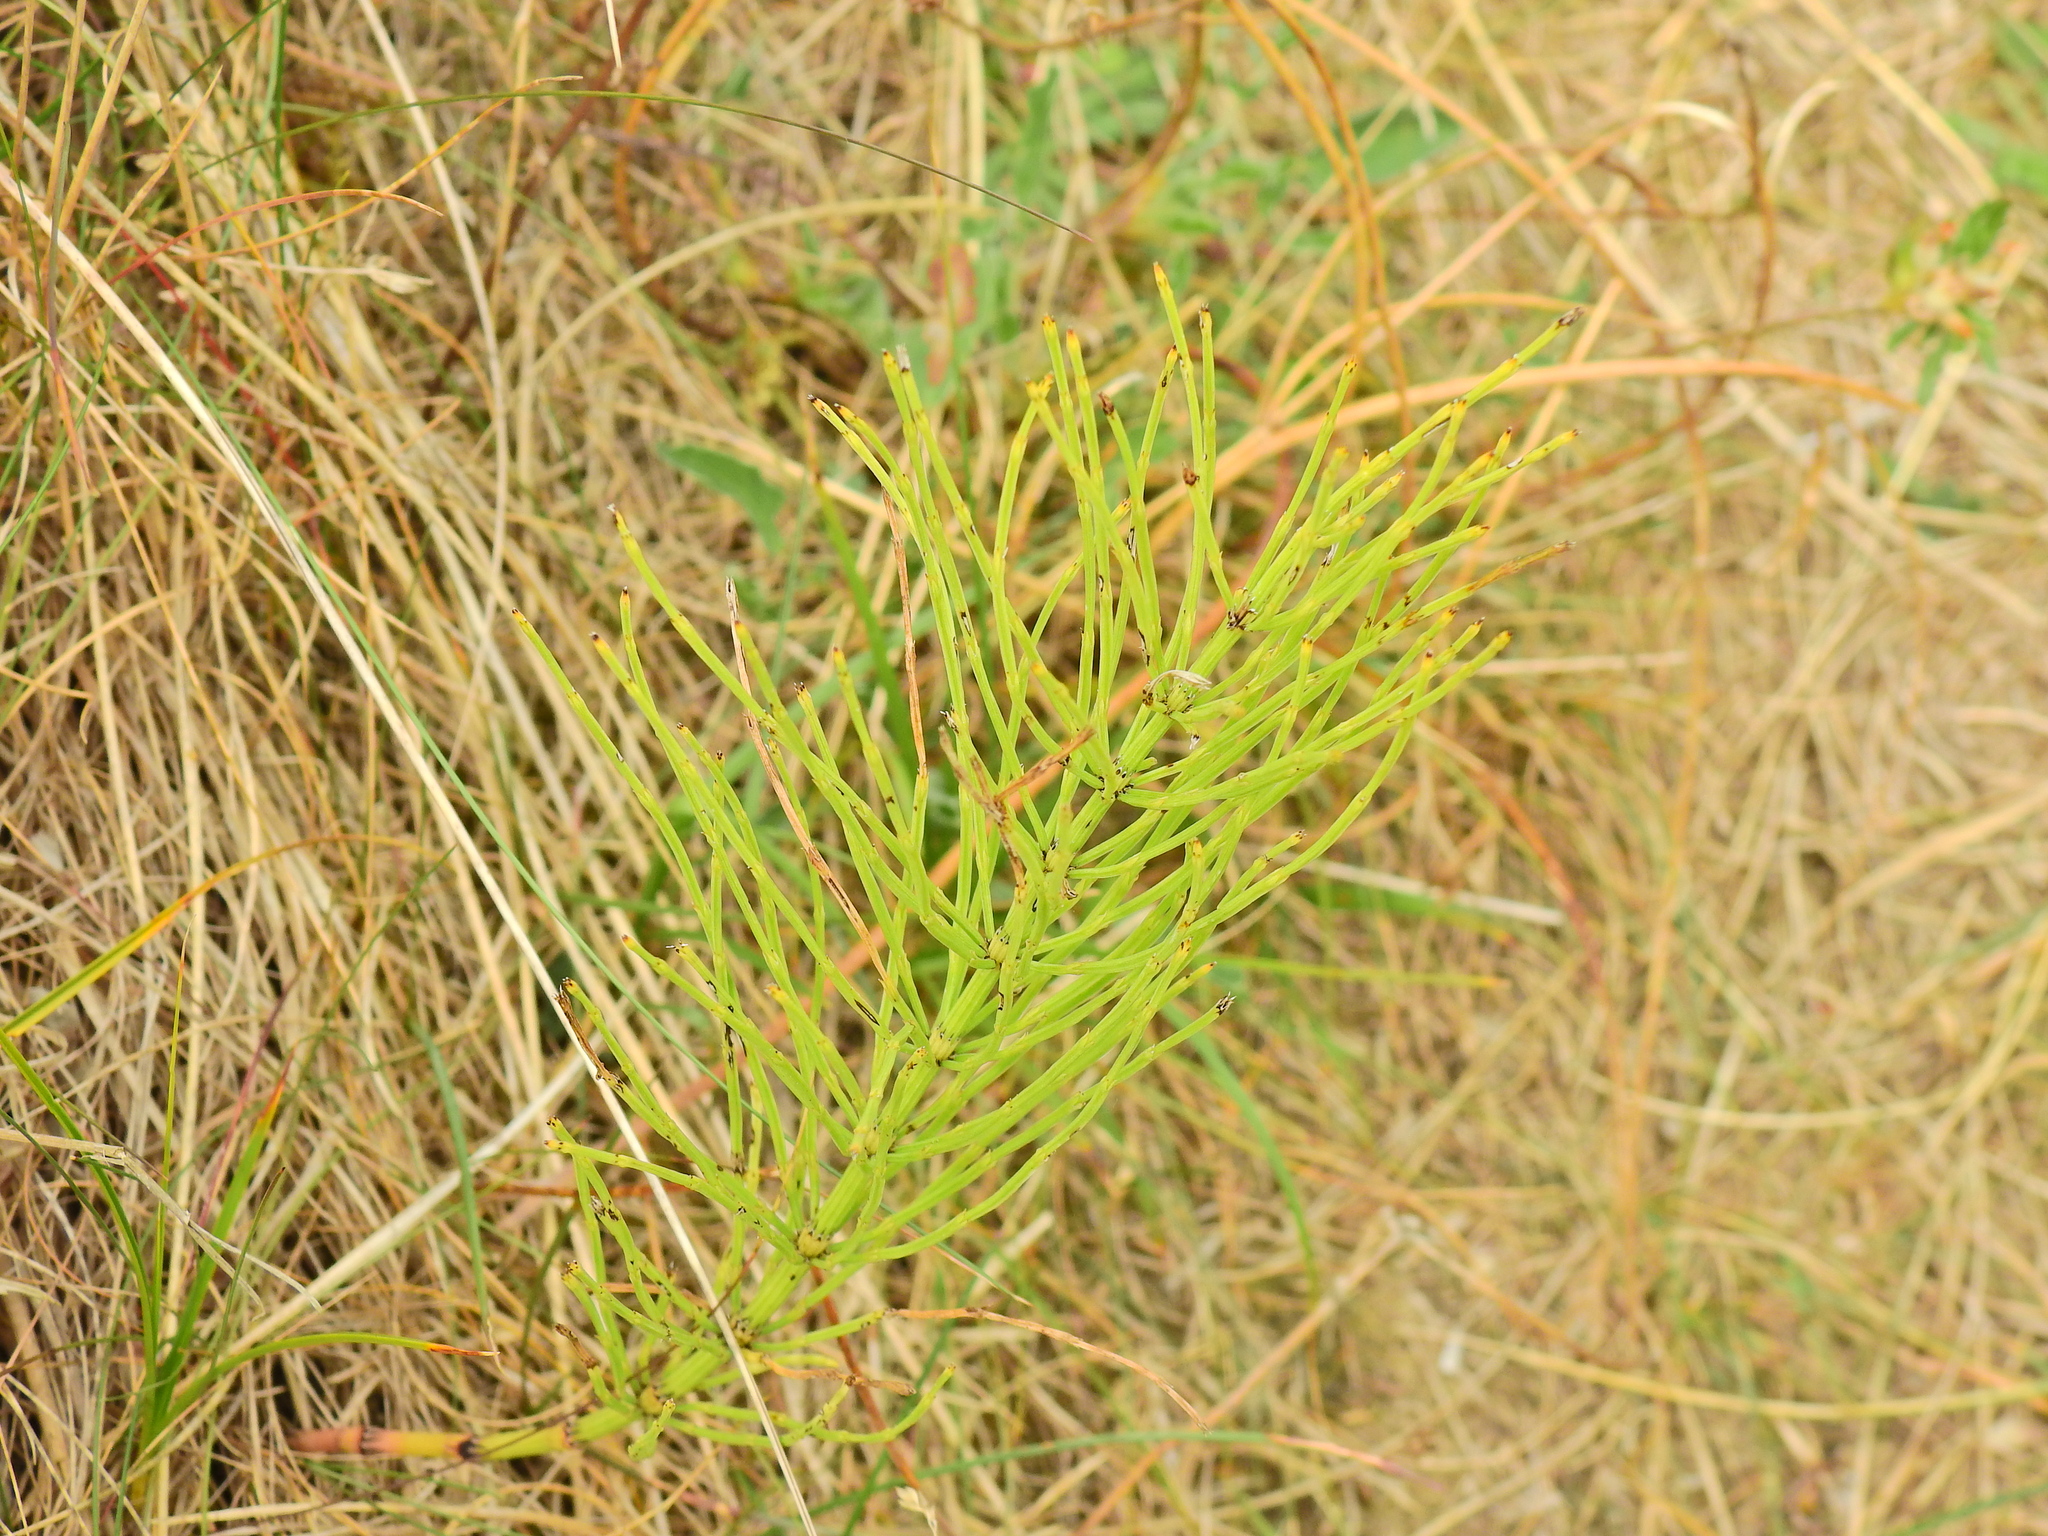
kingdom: Plantae
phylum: Tracheophyta
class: Polypodiopsida
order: Equisetales
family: Equisetaceae
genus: Equisetum
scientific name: Equisetum arvense
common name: Field horsetail
